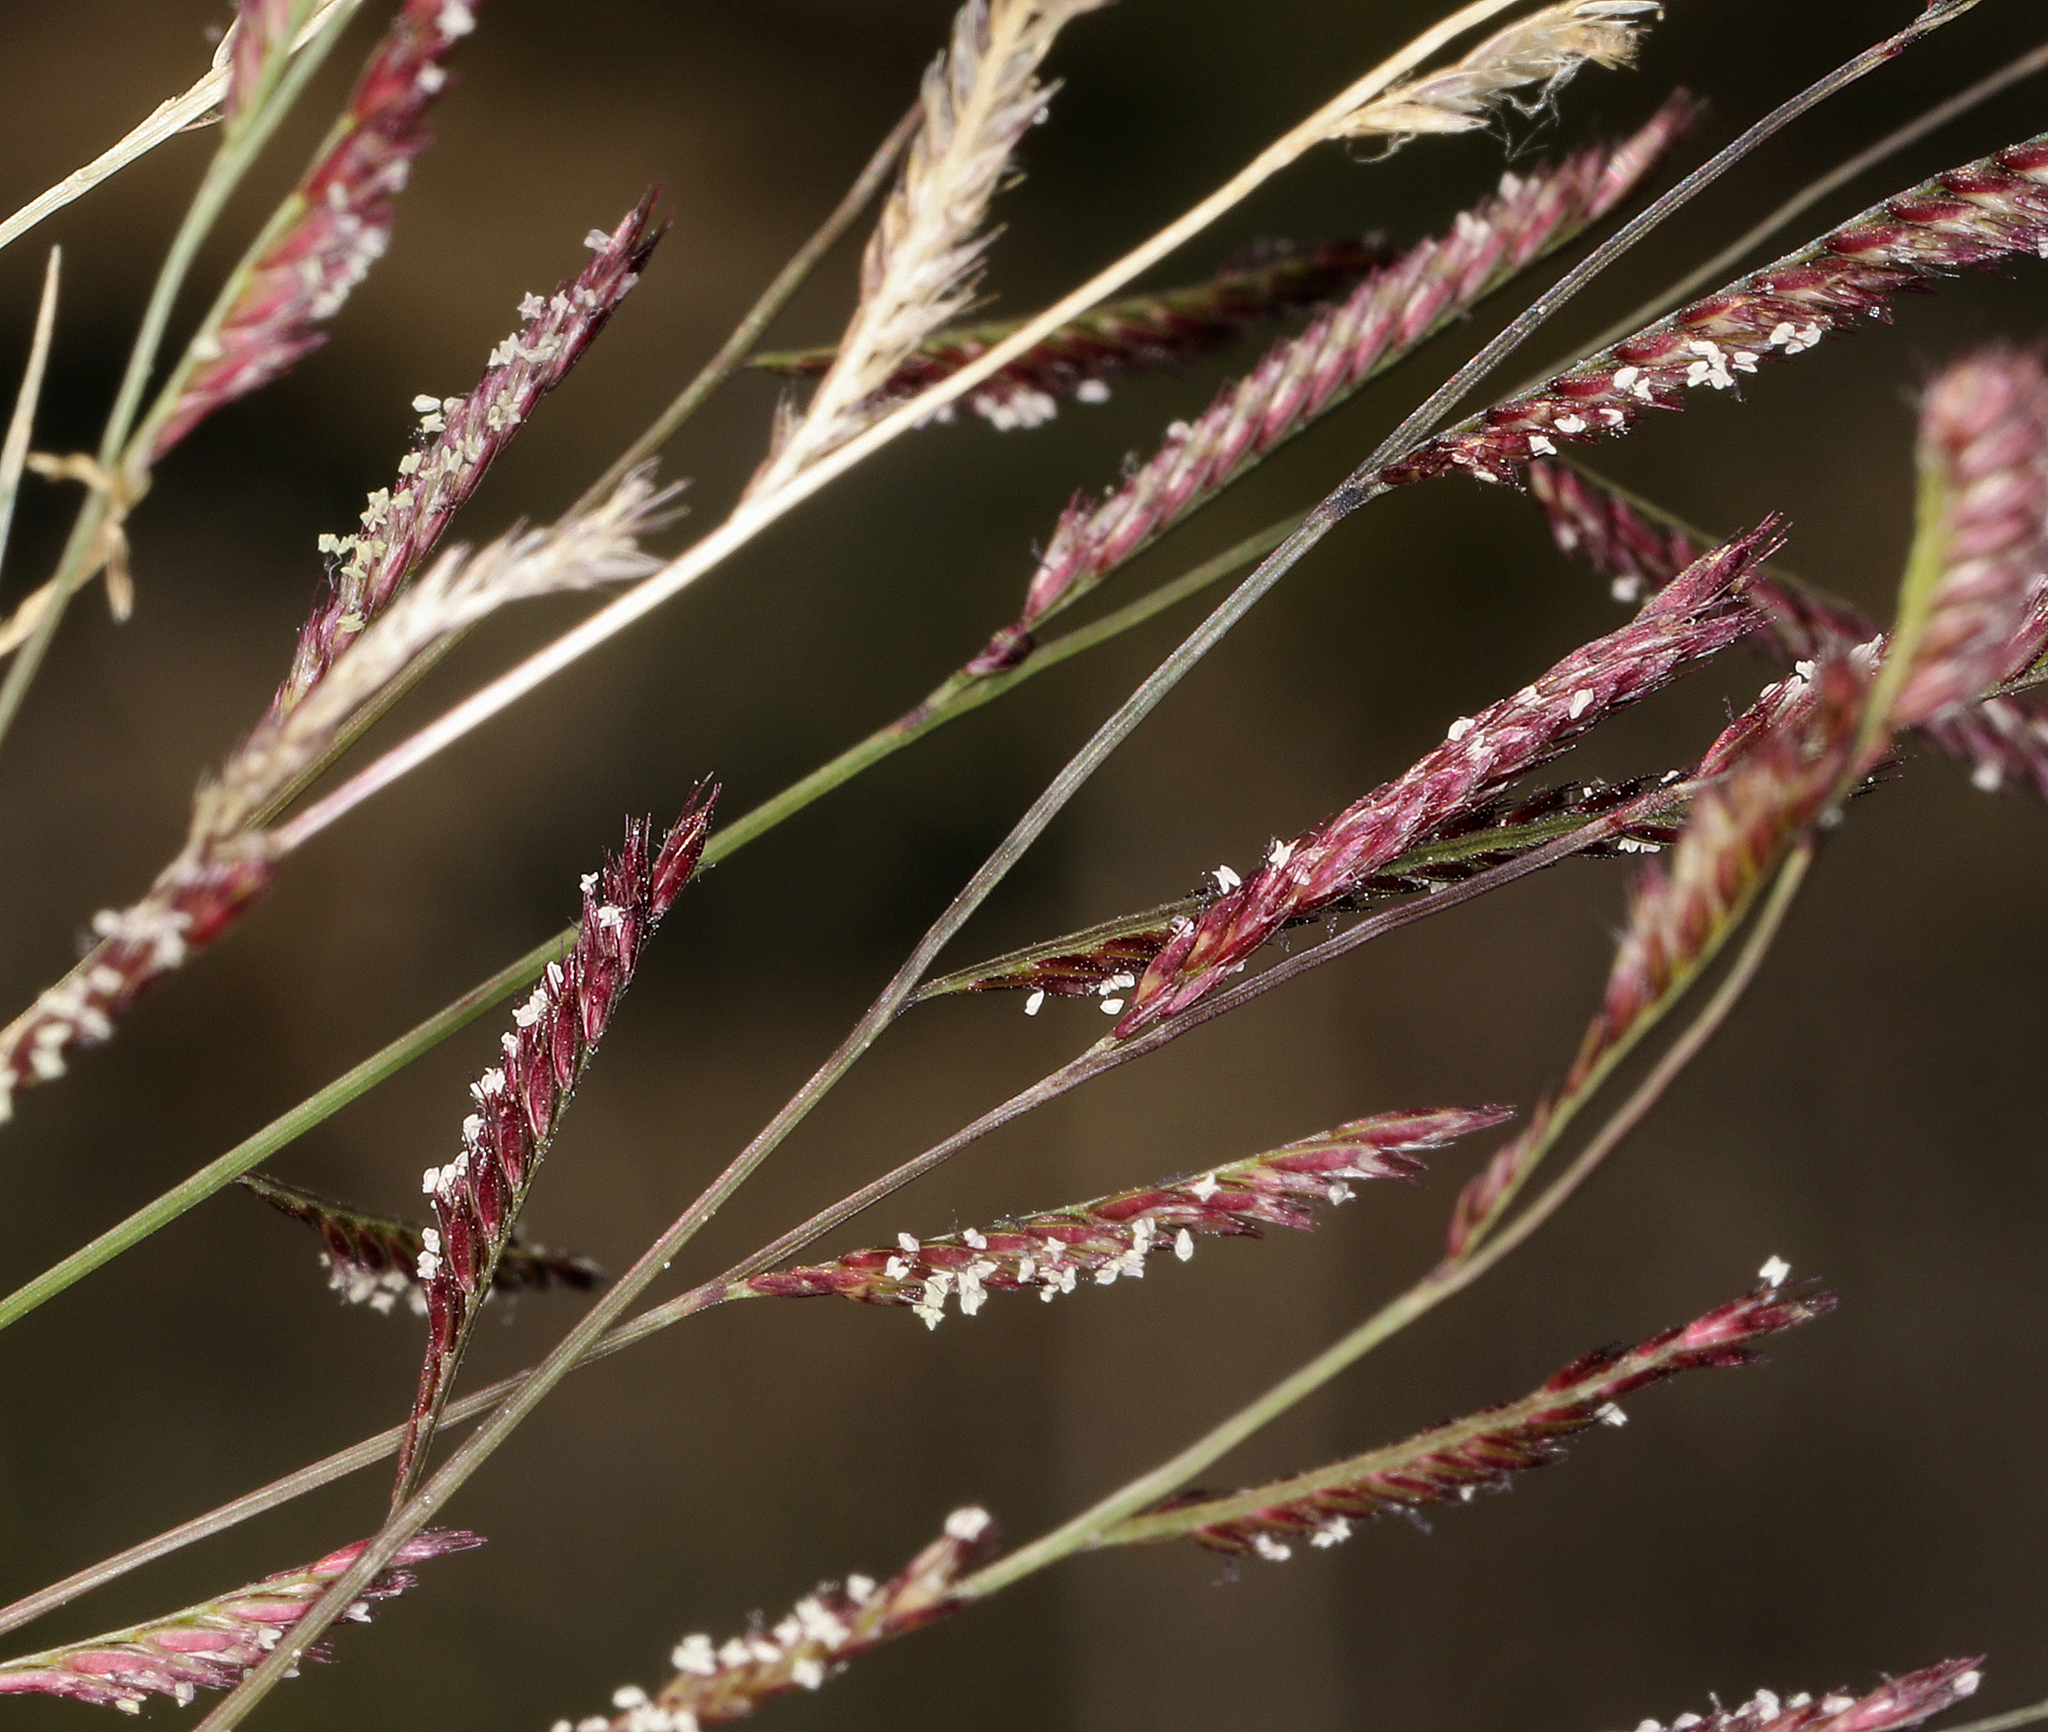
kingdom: Plantae
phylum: Tracheophyta
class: Liliopsida
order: Poales
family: Poaceae
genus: Bouteloua
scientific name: Bouteloua barbata
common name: Six-weeks grama
